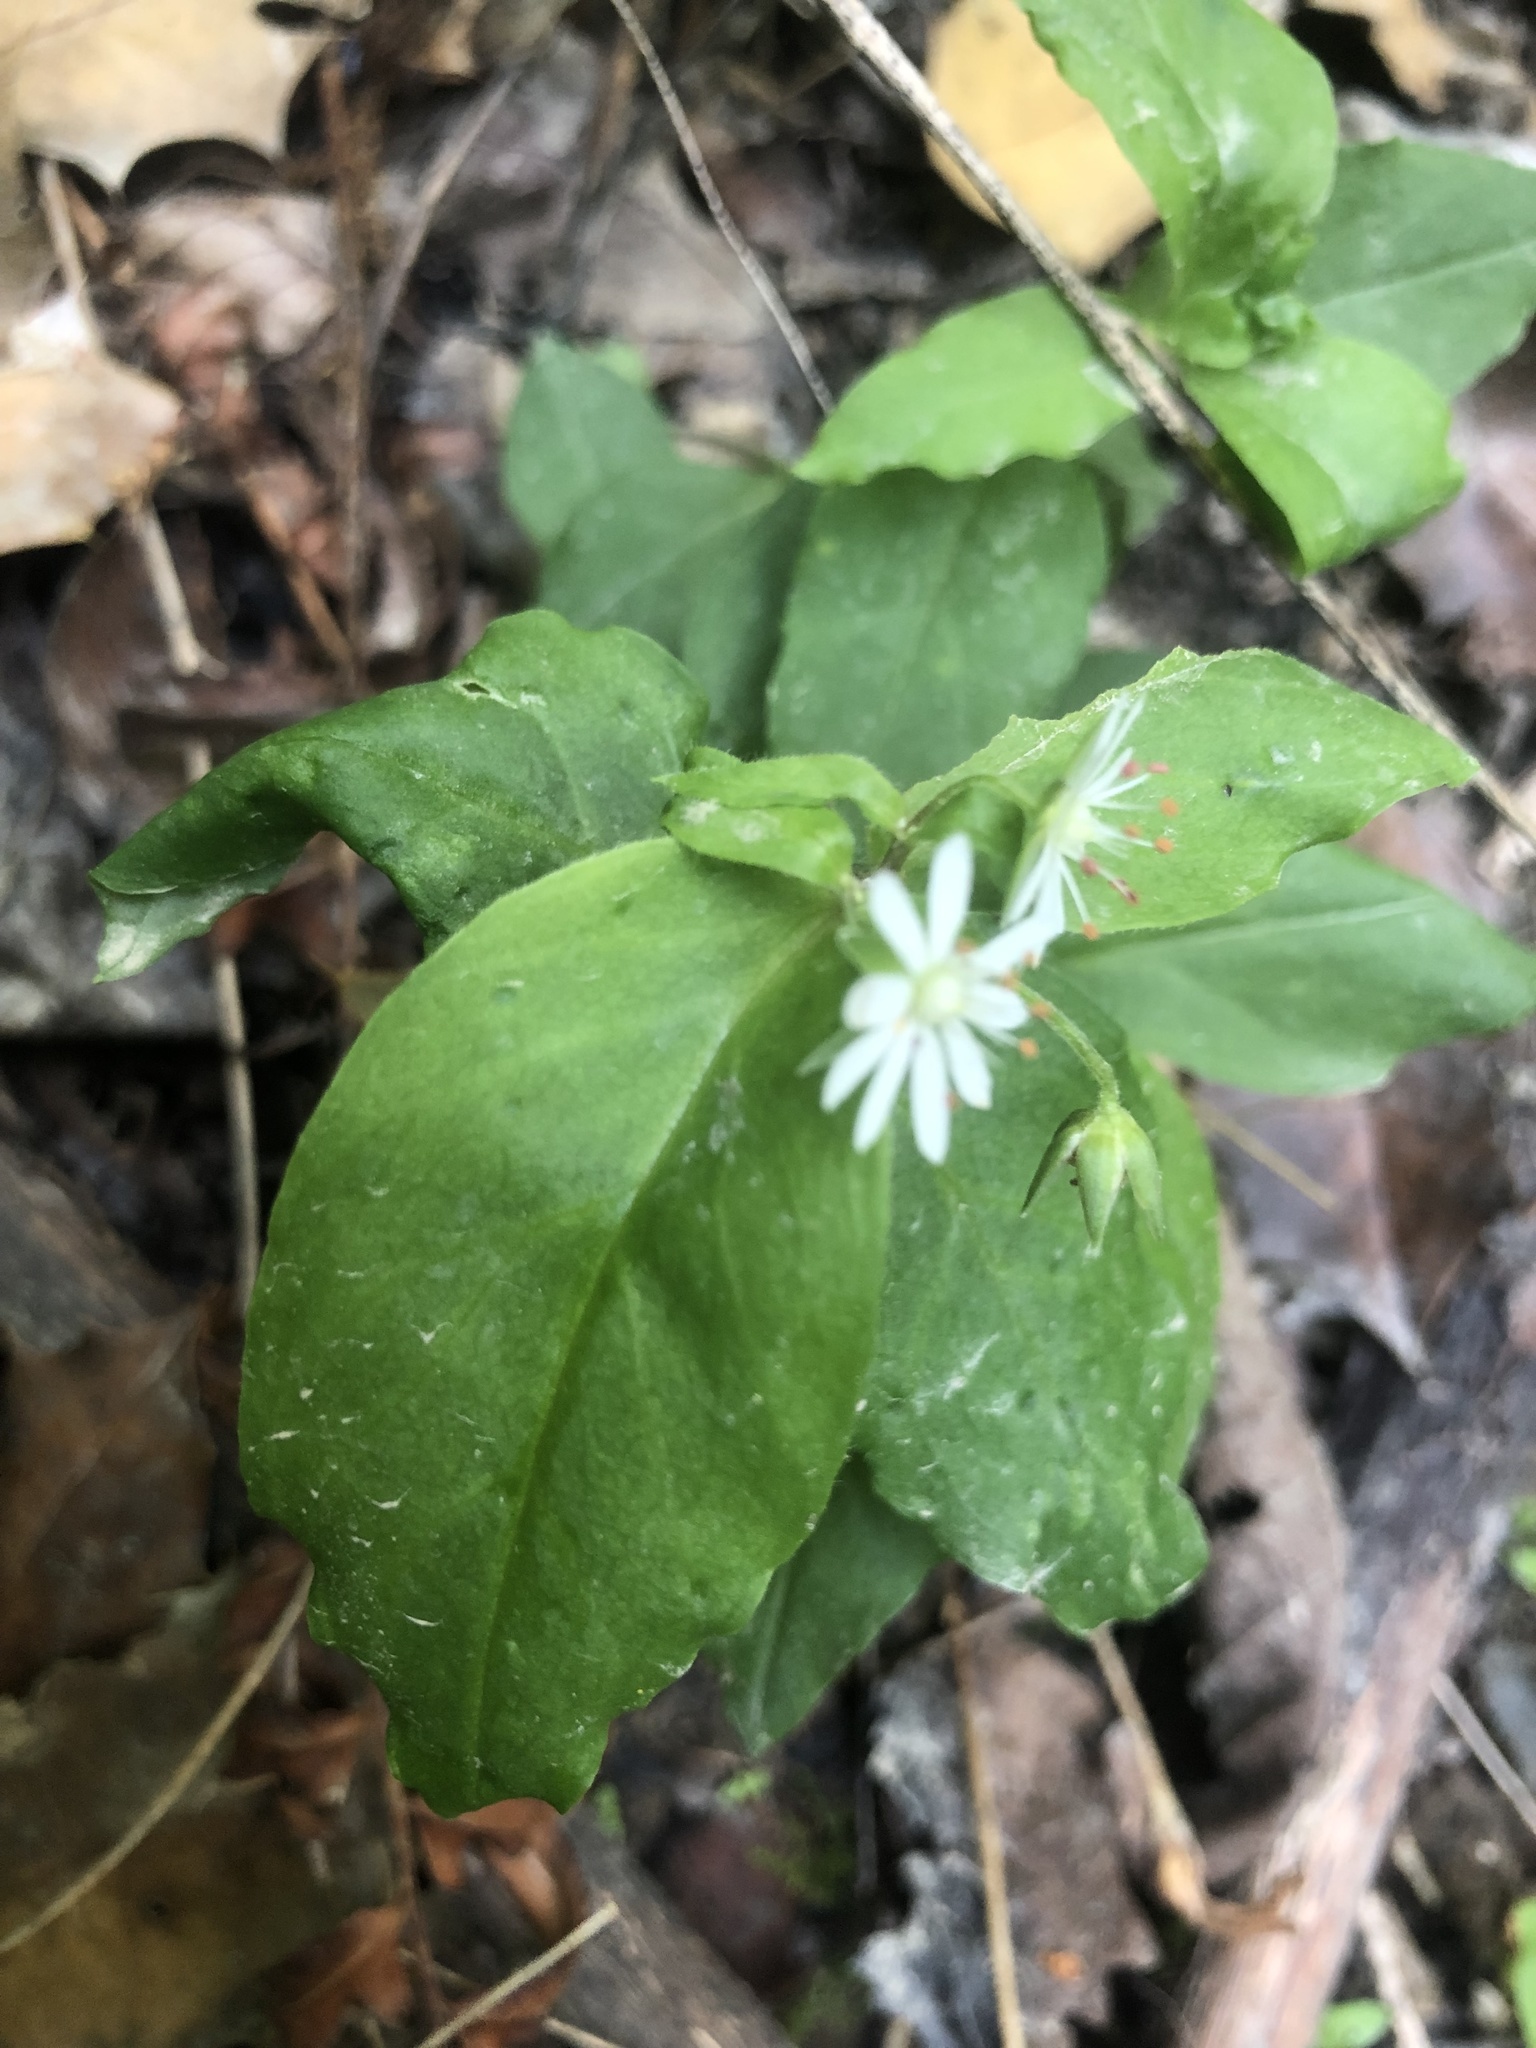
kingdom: Plantae
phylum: Tracheophyta
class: Magnoliopsida
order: Caryophyllales
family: Caryophyllaceae
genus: Stellaria
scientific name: Stellaria pubera
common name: Star chickweed
